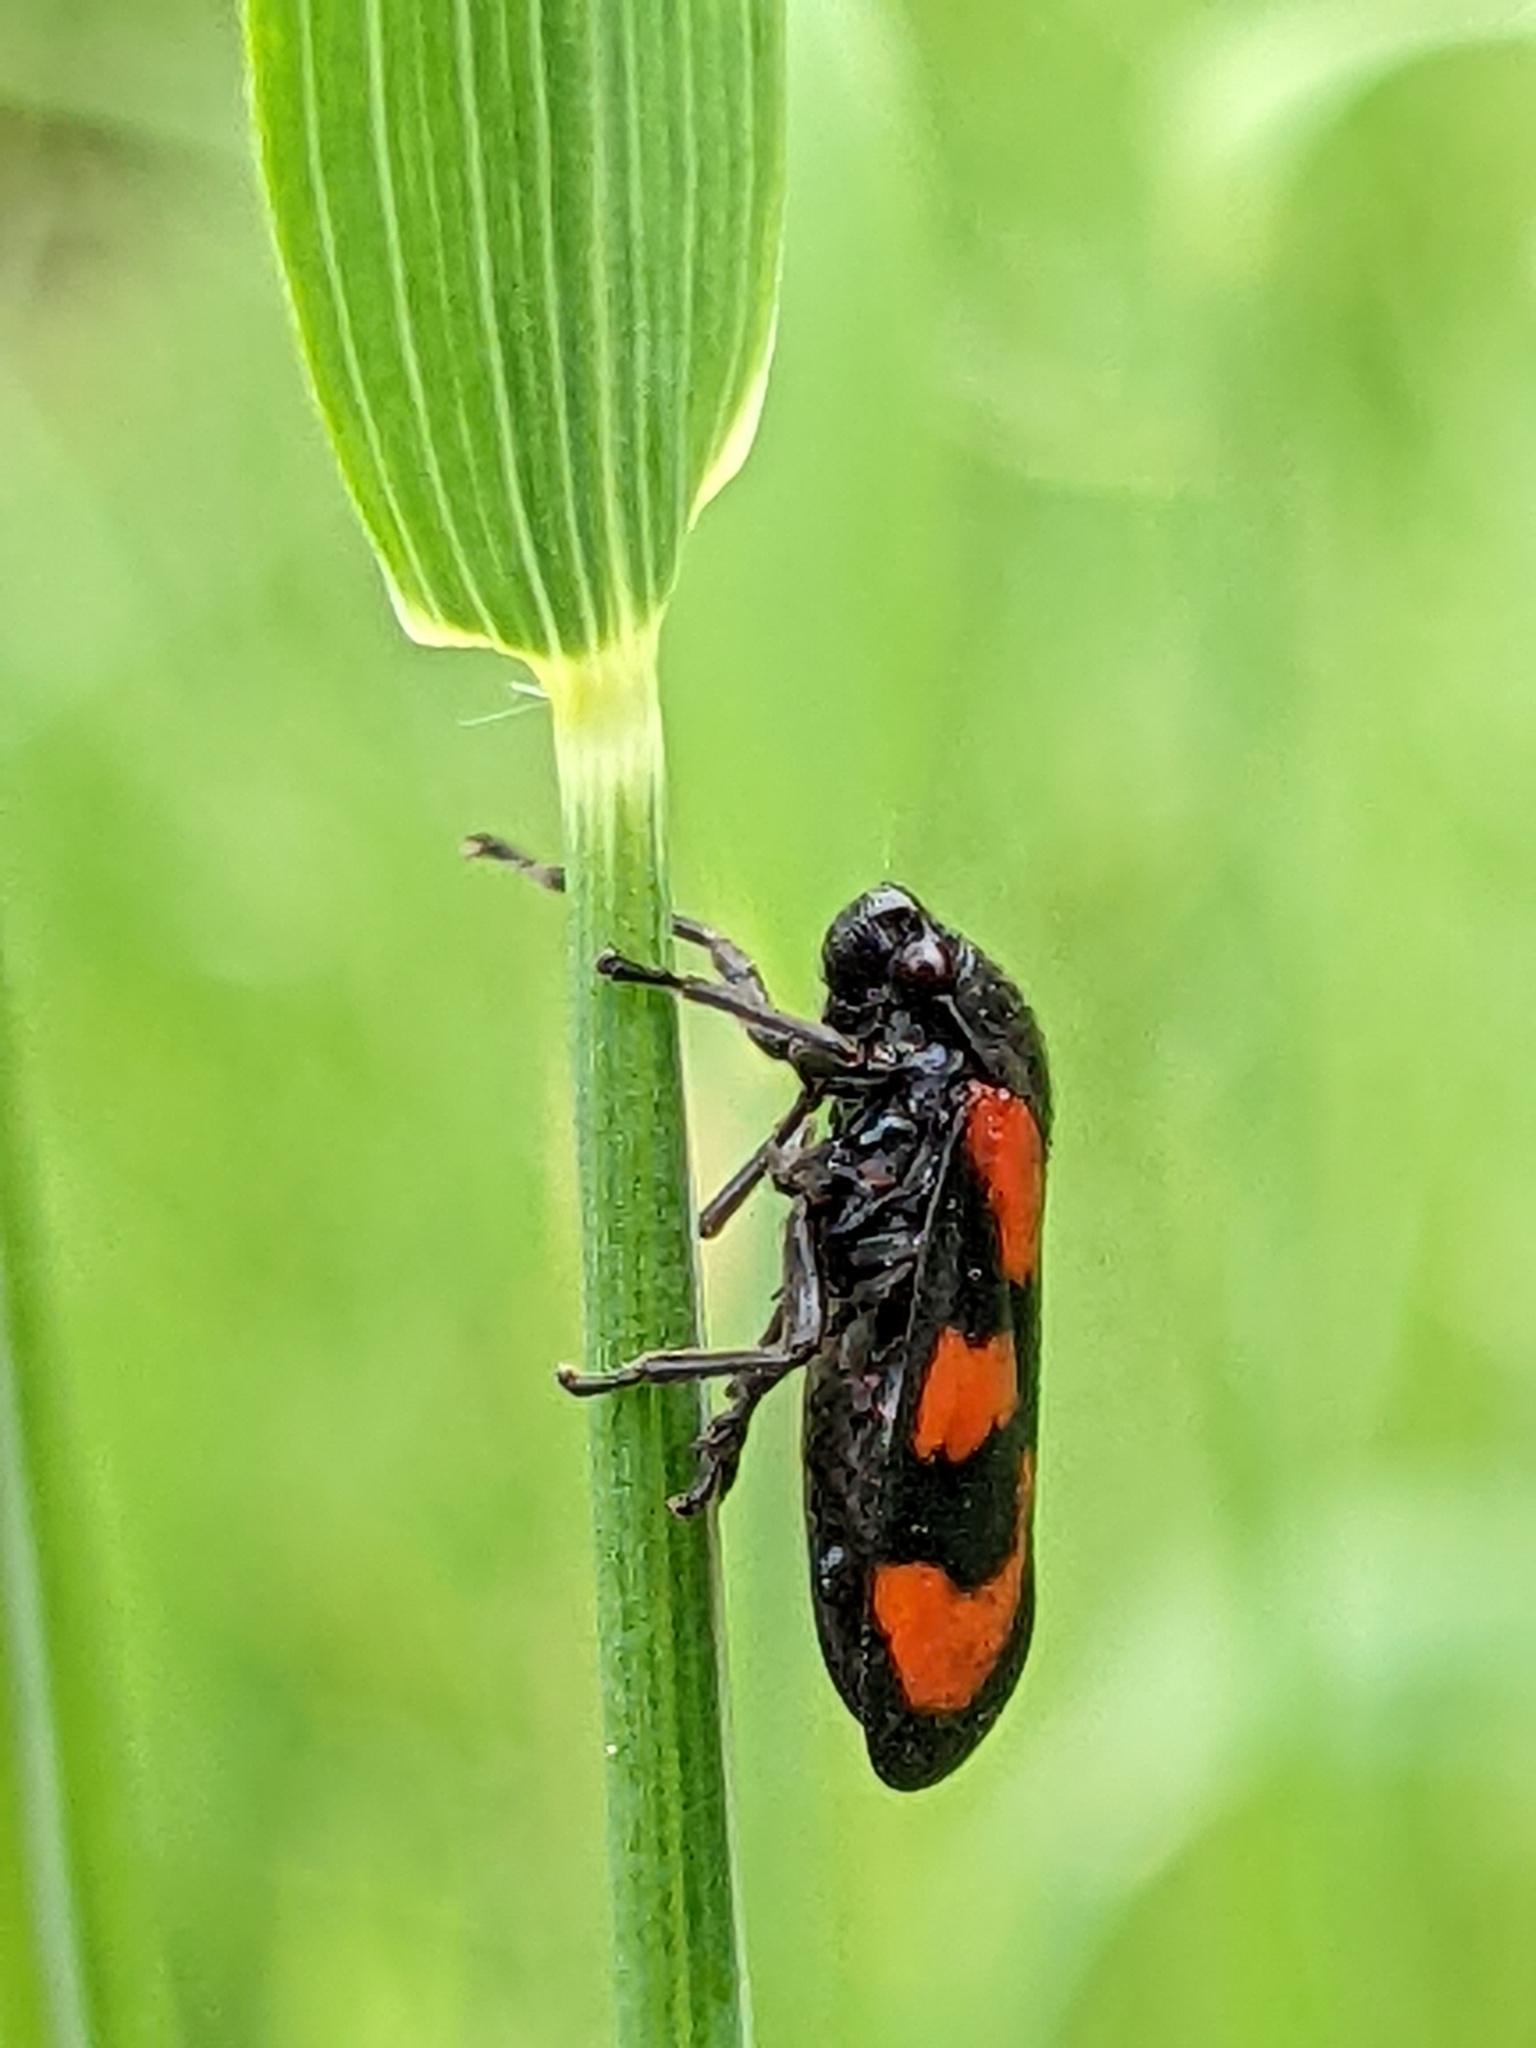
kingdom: Animalia
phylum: Arthropoda
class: Insecta
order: Hemiptera
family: Cercopidae
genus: Cercopis
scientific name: Cercopis vulnerata
